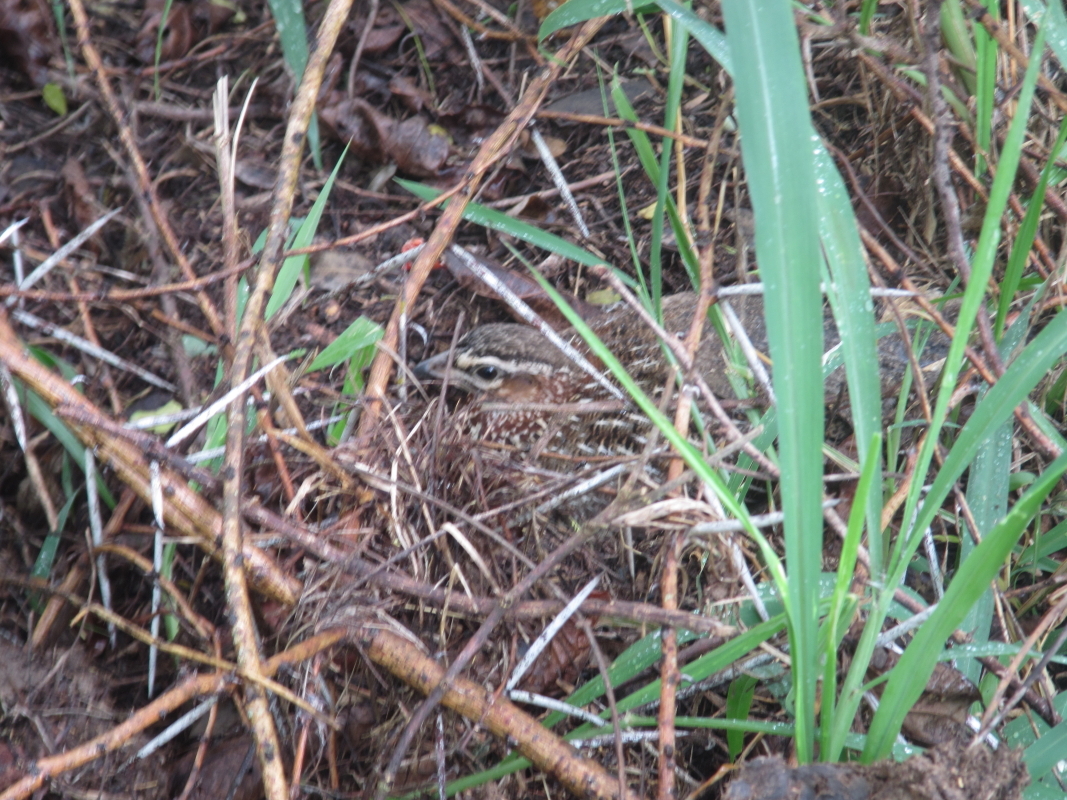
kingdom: Animalia
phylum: Chordata
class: Aves
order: Galliformes
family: Phasianidae
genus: Ortygornis
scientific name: Ortygornis sephaena
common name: Crested francolin
